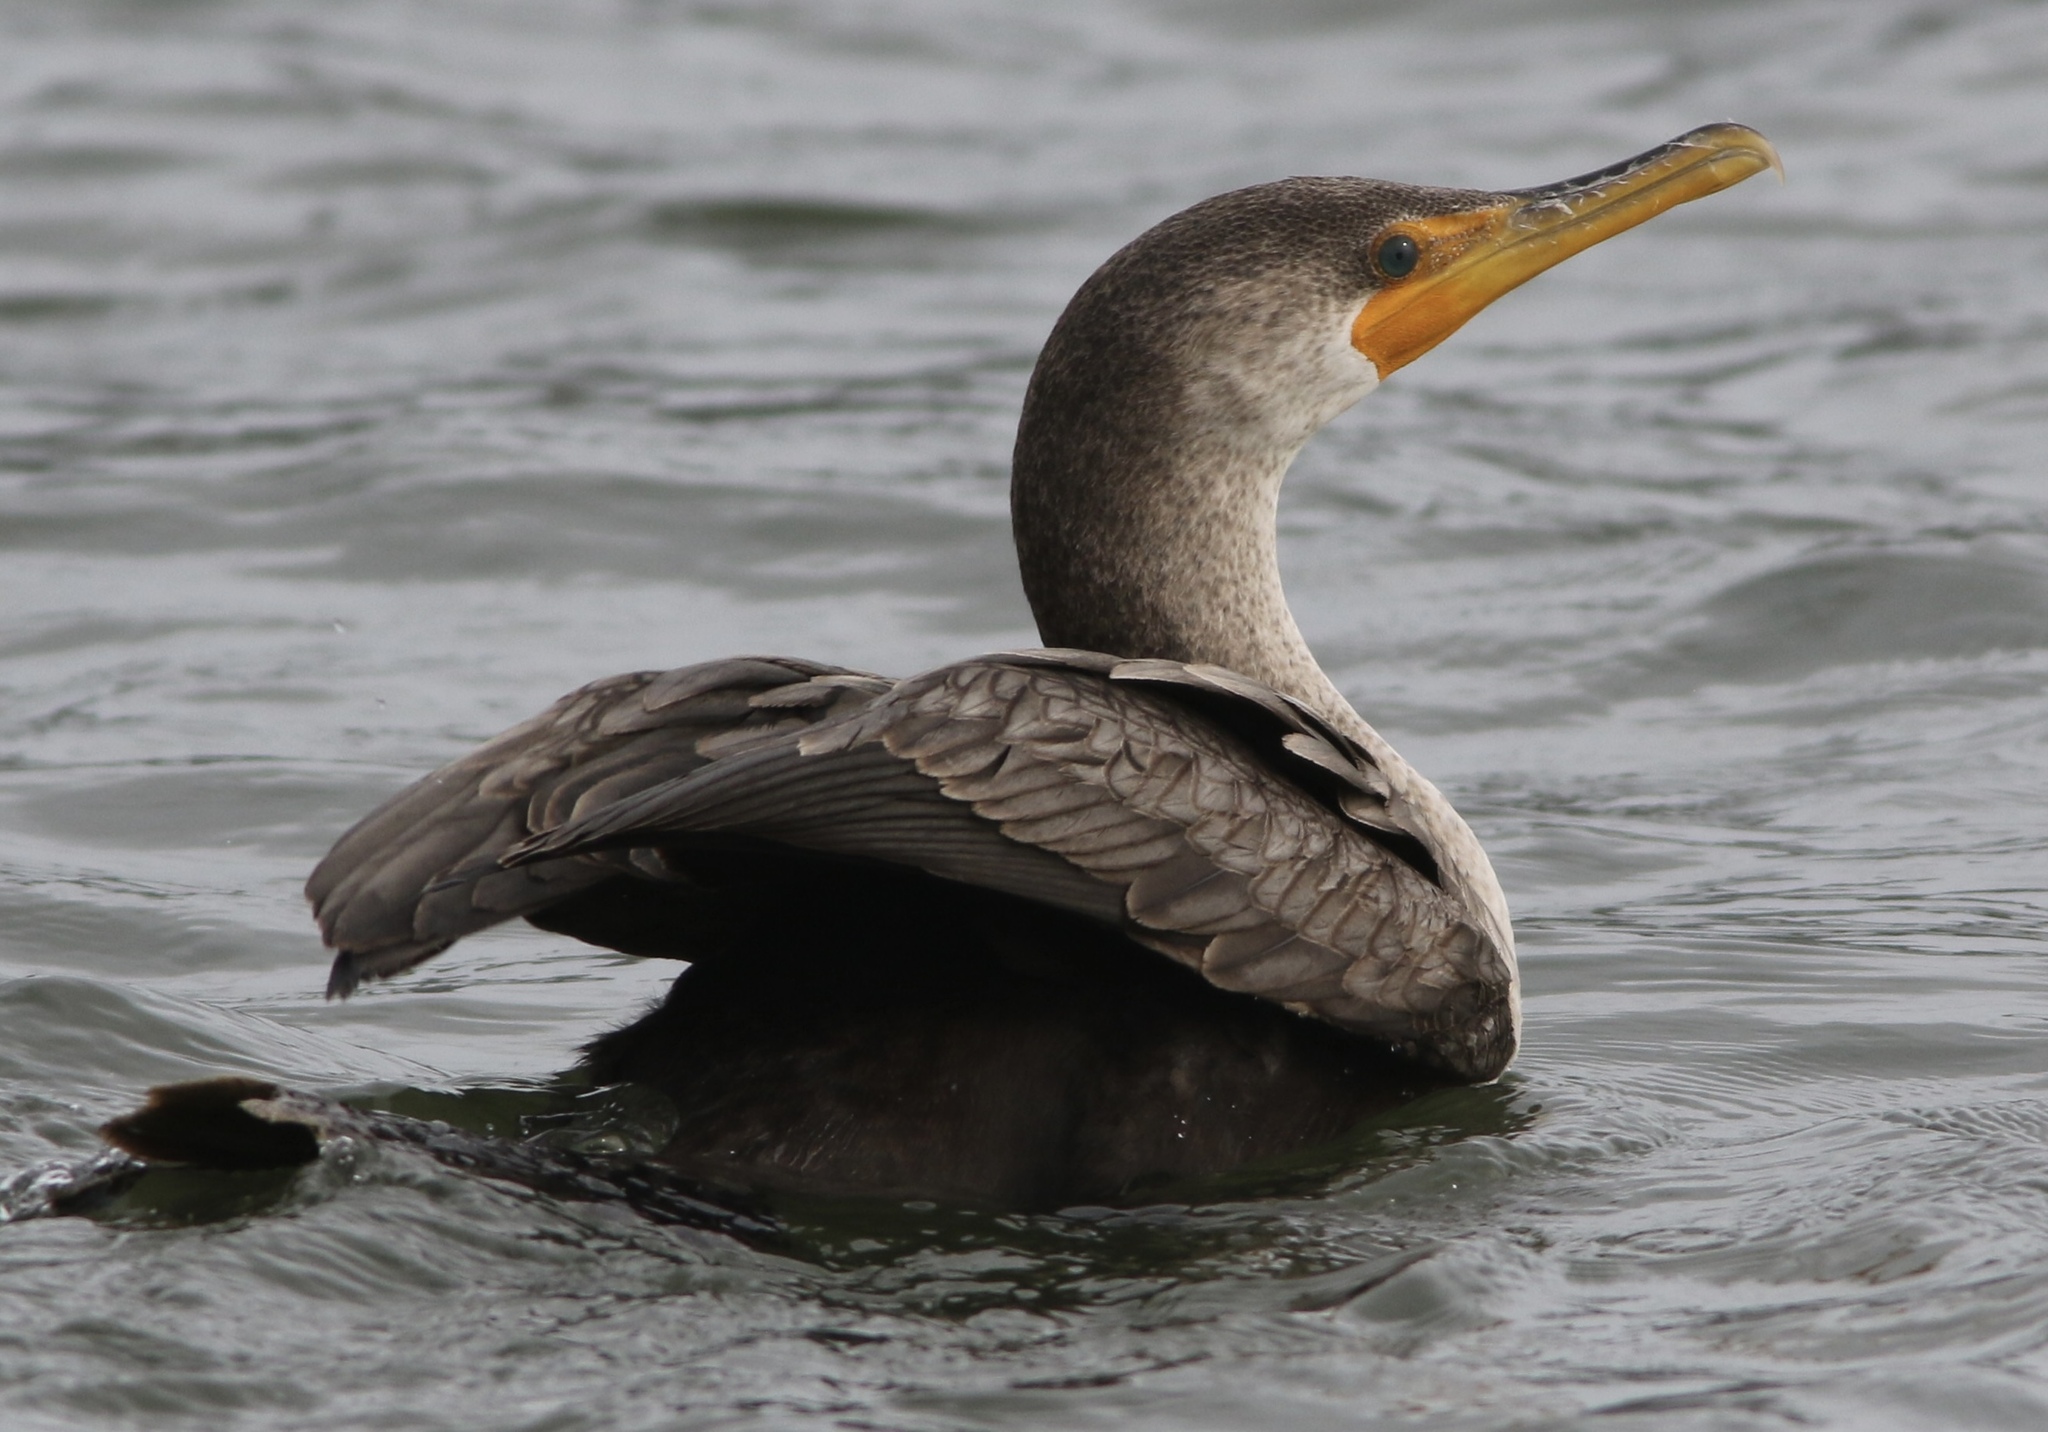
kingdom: Animalia
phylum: Chordata
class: Aves
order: Suliformes
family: Phalacrocoracidae
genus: Phalacrocorax
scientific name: Phalacrocorax auritus
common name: Double-crested cormorant
